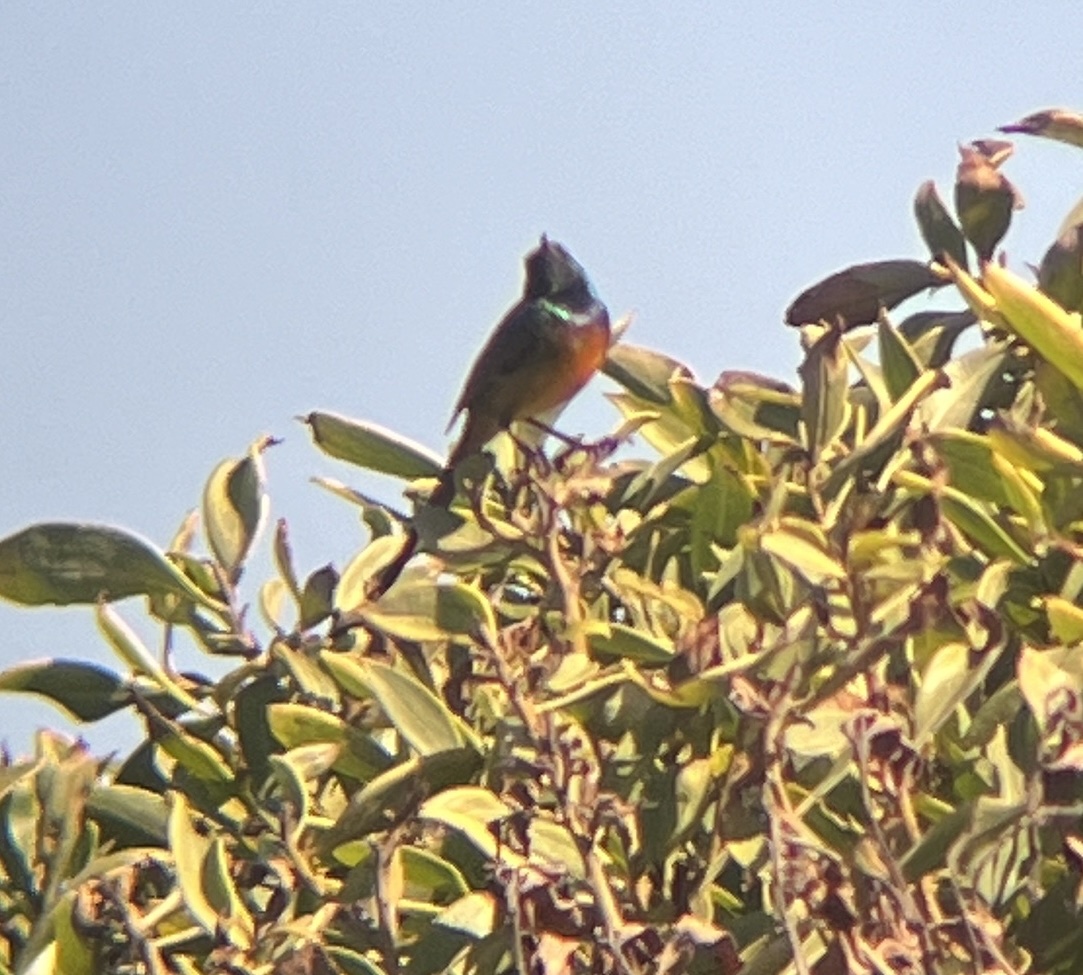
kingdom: Animalia
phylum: Chordata
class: Aves
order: Passeriformes
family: Nectariniidae
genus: Anthobaphes
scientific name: Anthobaphes violacea
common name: Orange-breasted sunbird
